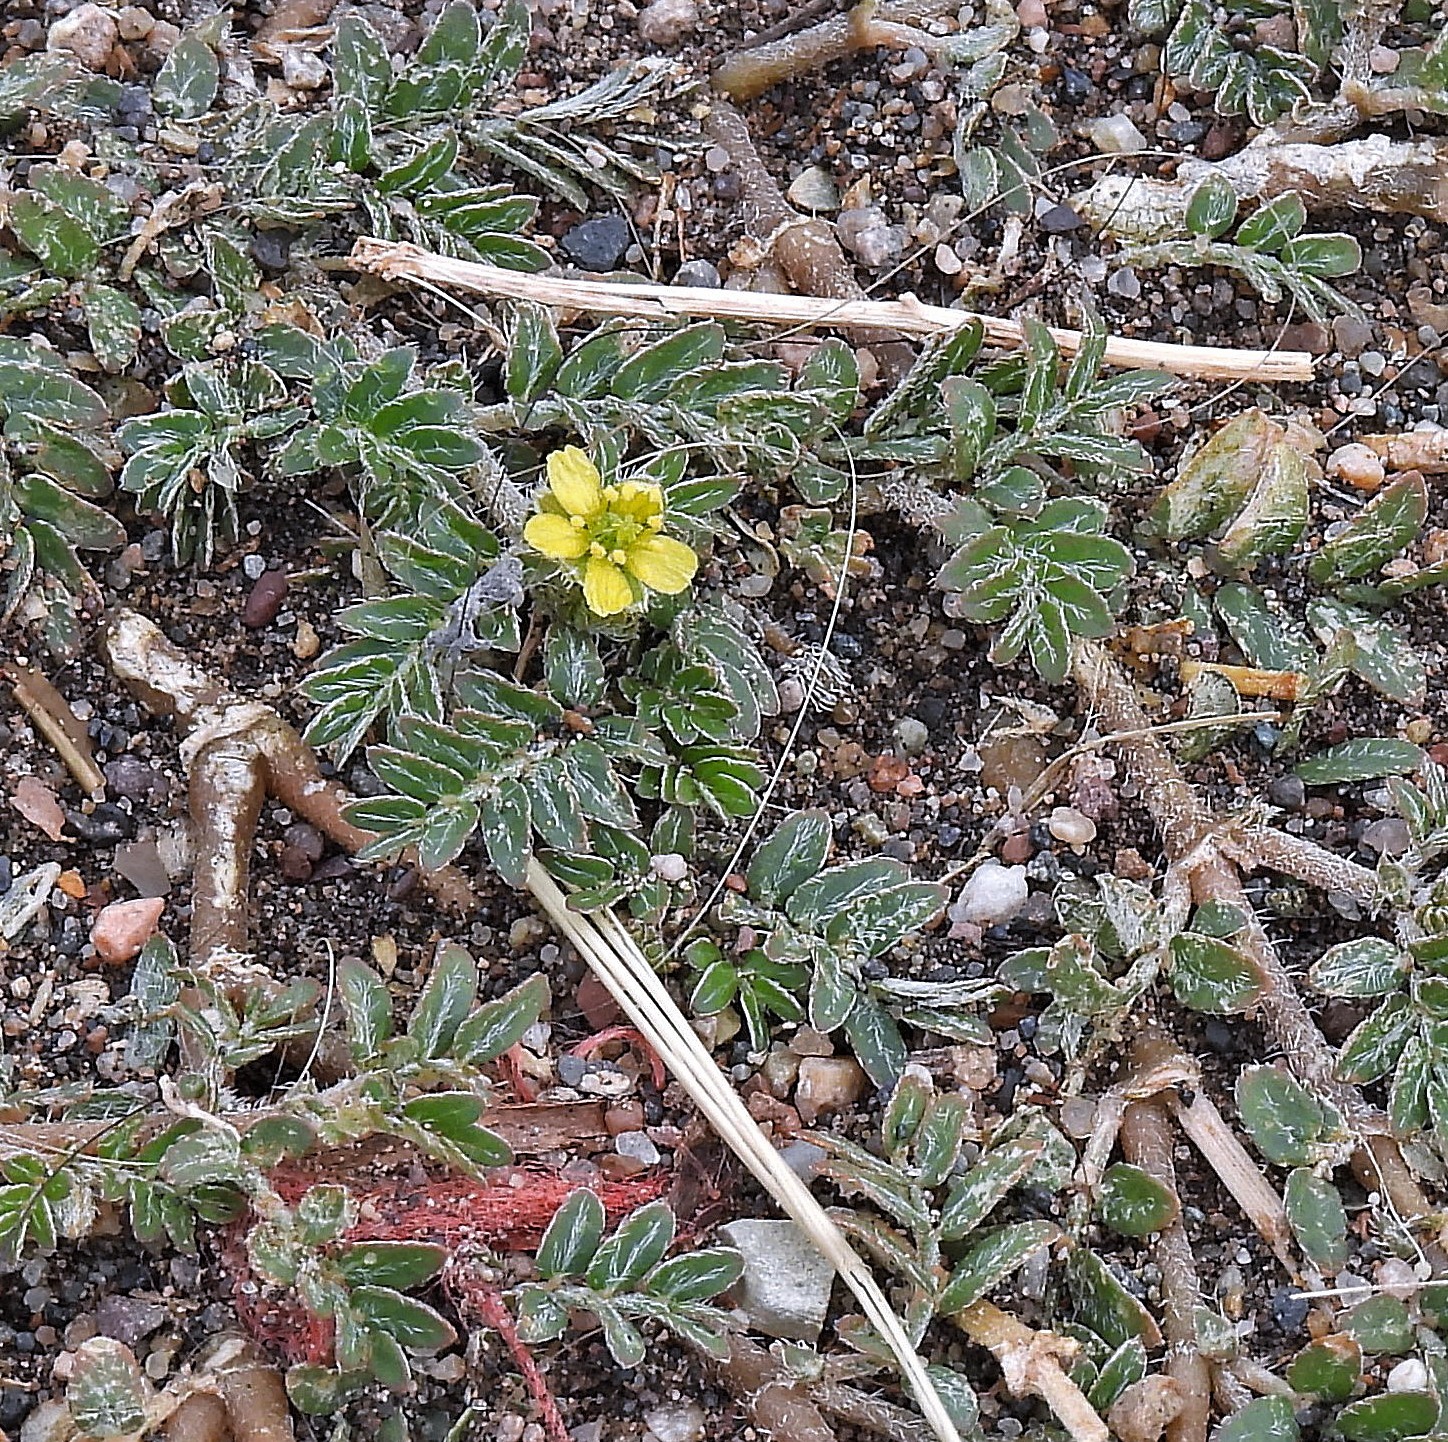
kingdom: Plantae
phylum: Tracheophyta
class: Magnoliopsida
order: Zygophyllales
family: Zygophyllaceae
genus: Tribulus
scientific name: Tribulus terrestris
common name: Puncturevine
